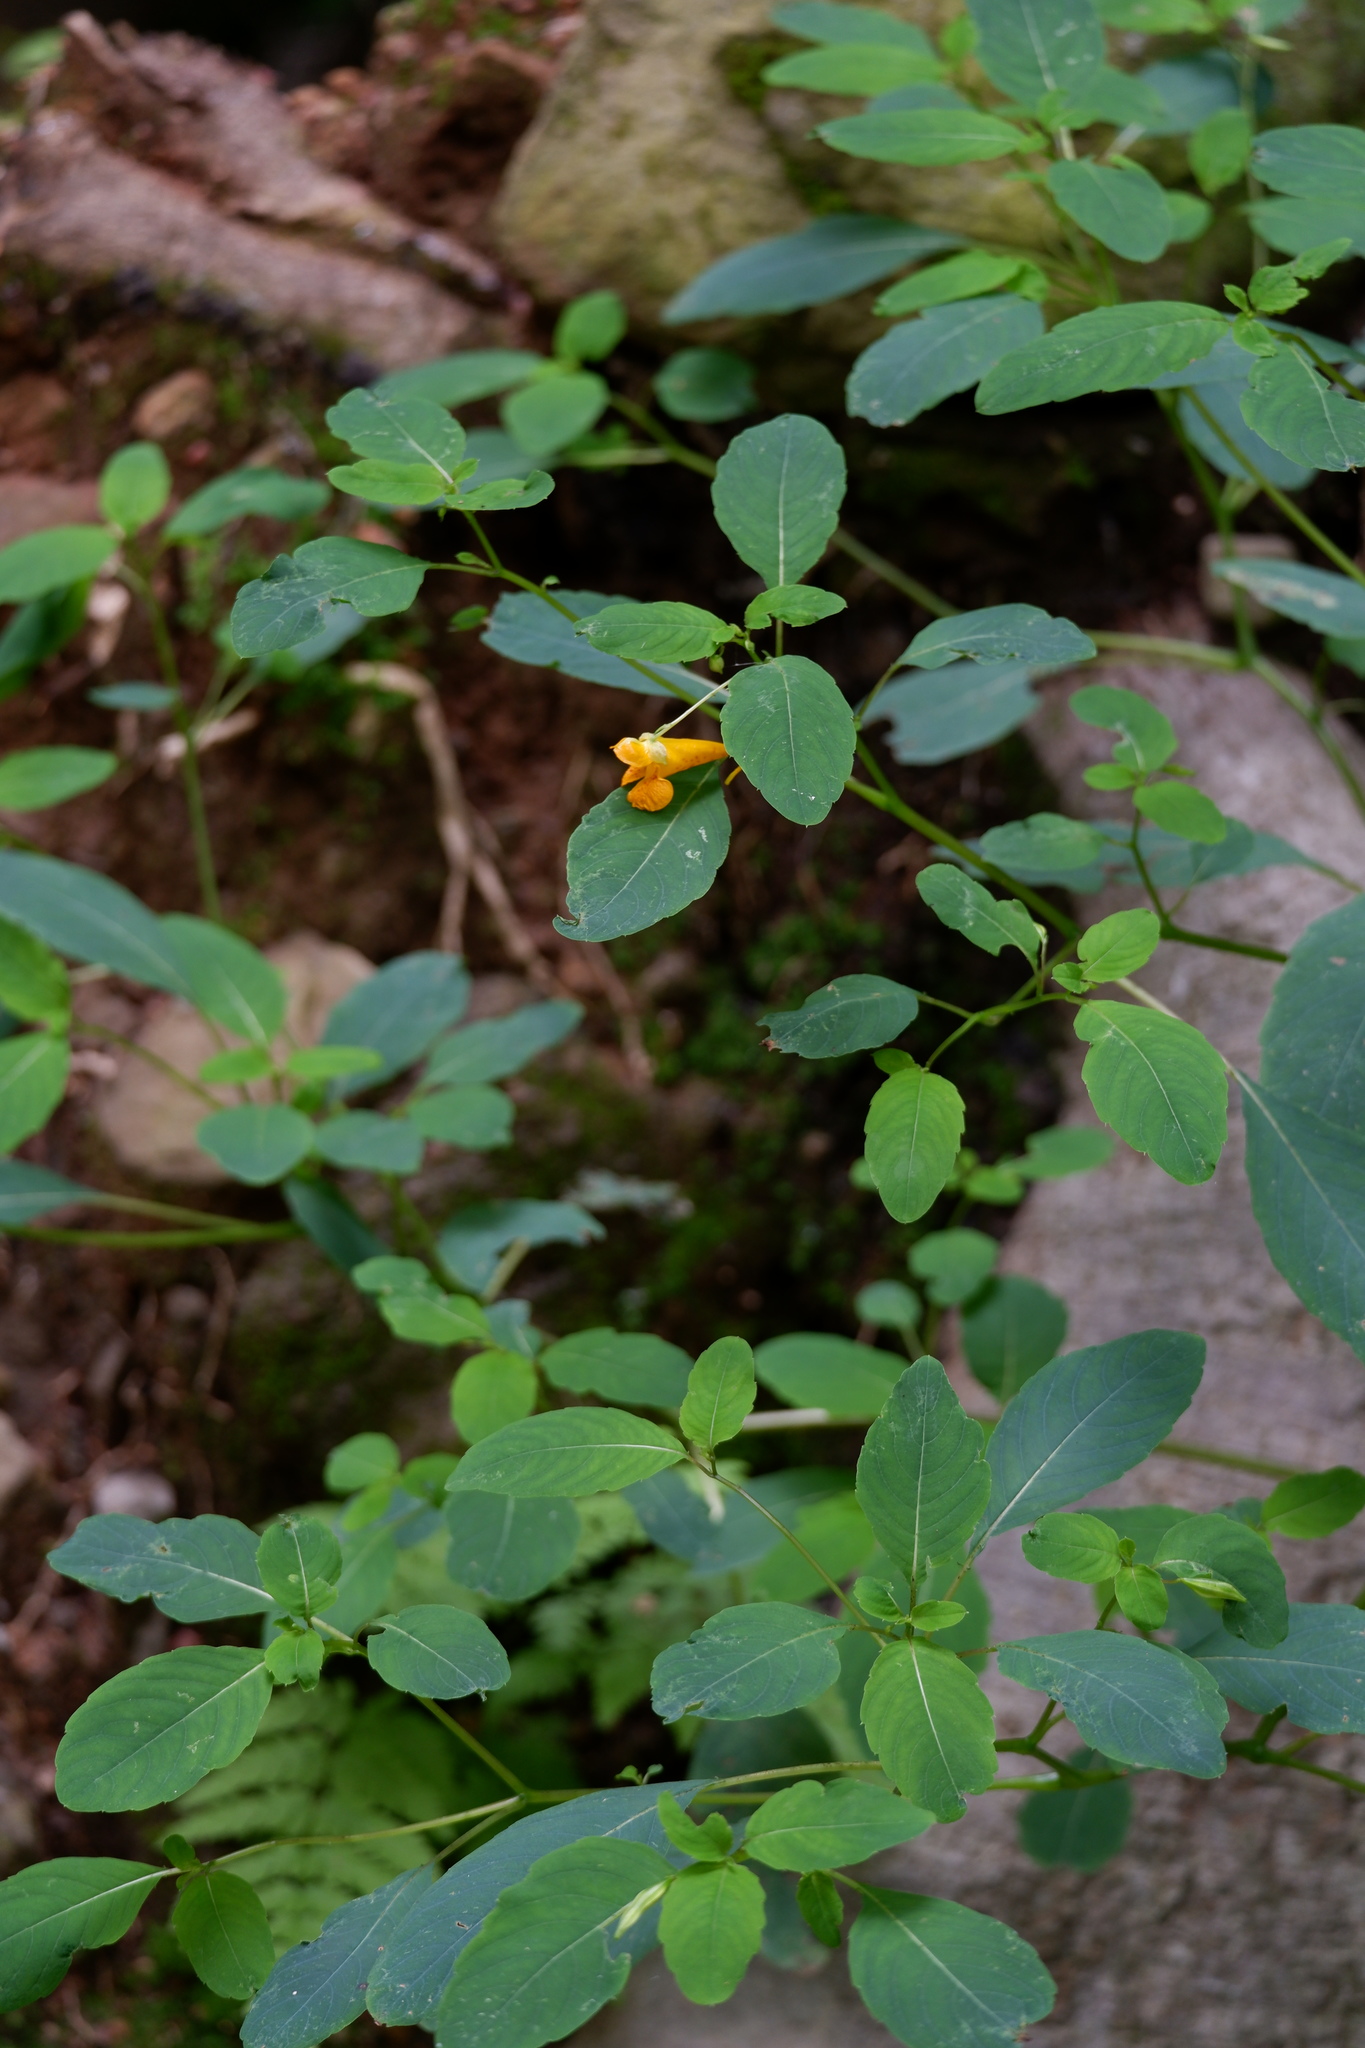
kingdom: Plantae
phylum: Tracheophyta
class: Magnoliopsida
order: Ericales
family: Balsaminaceae
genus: Impatiens
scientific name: Impatiens capensis
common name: Orange balsam
